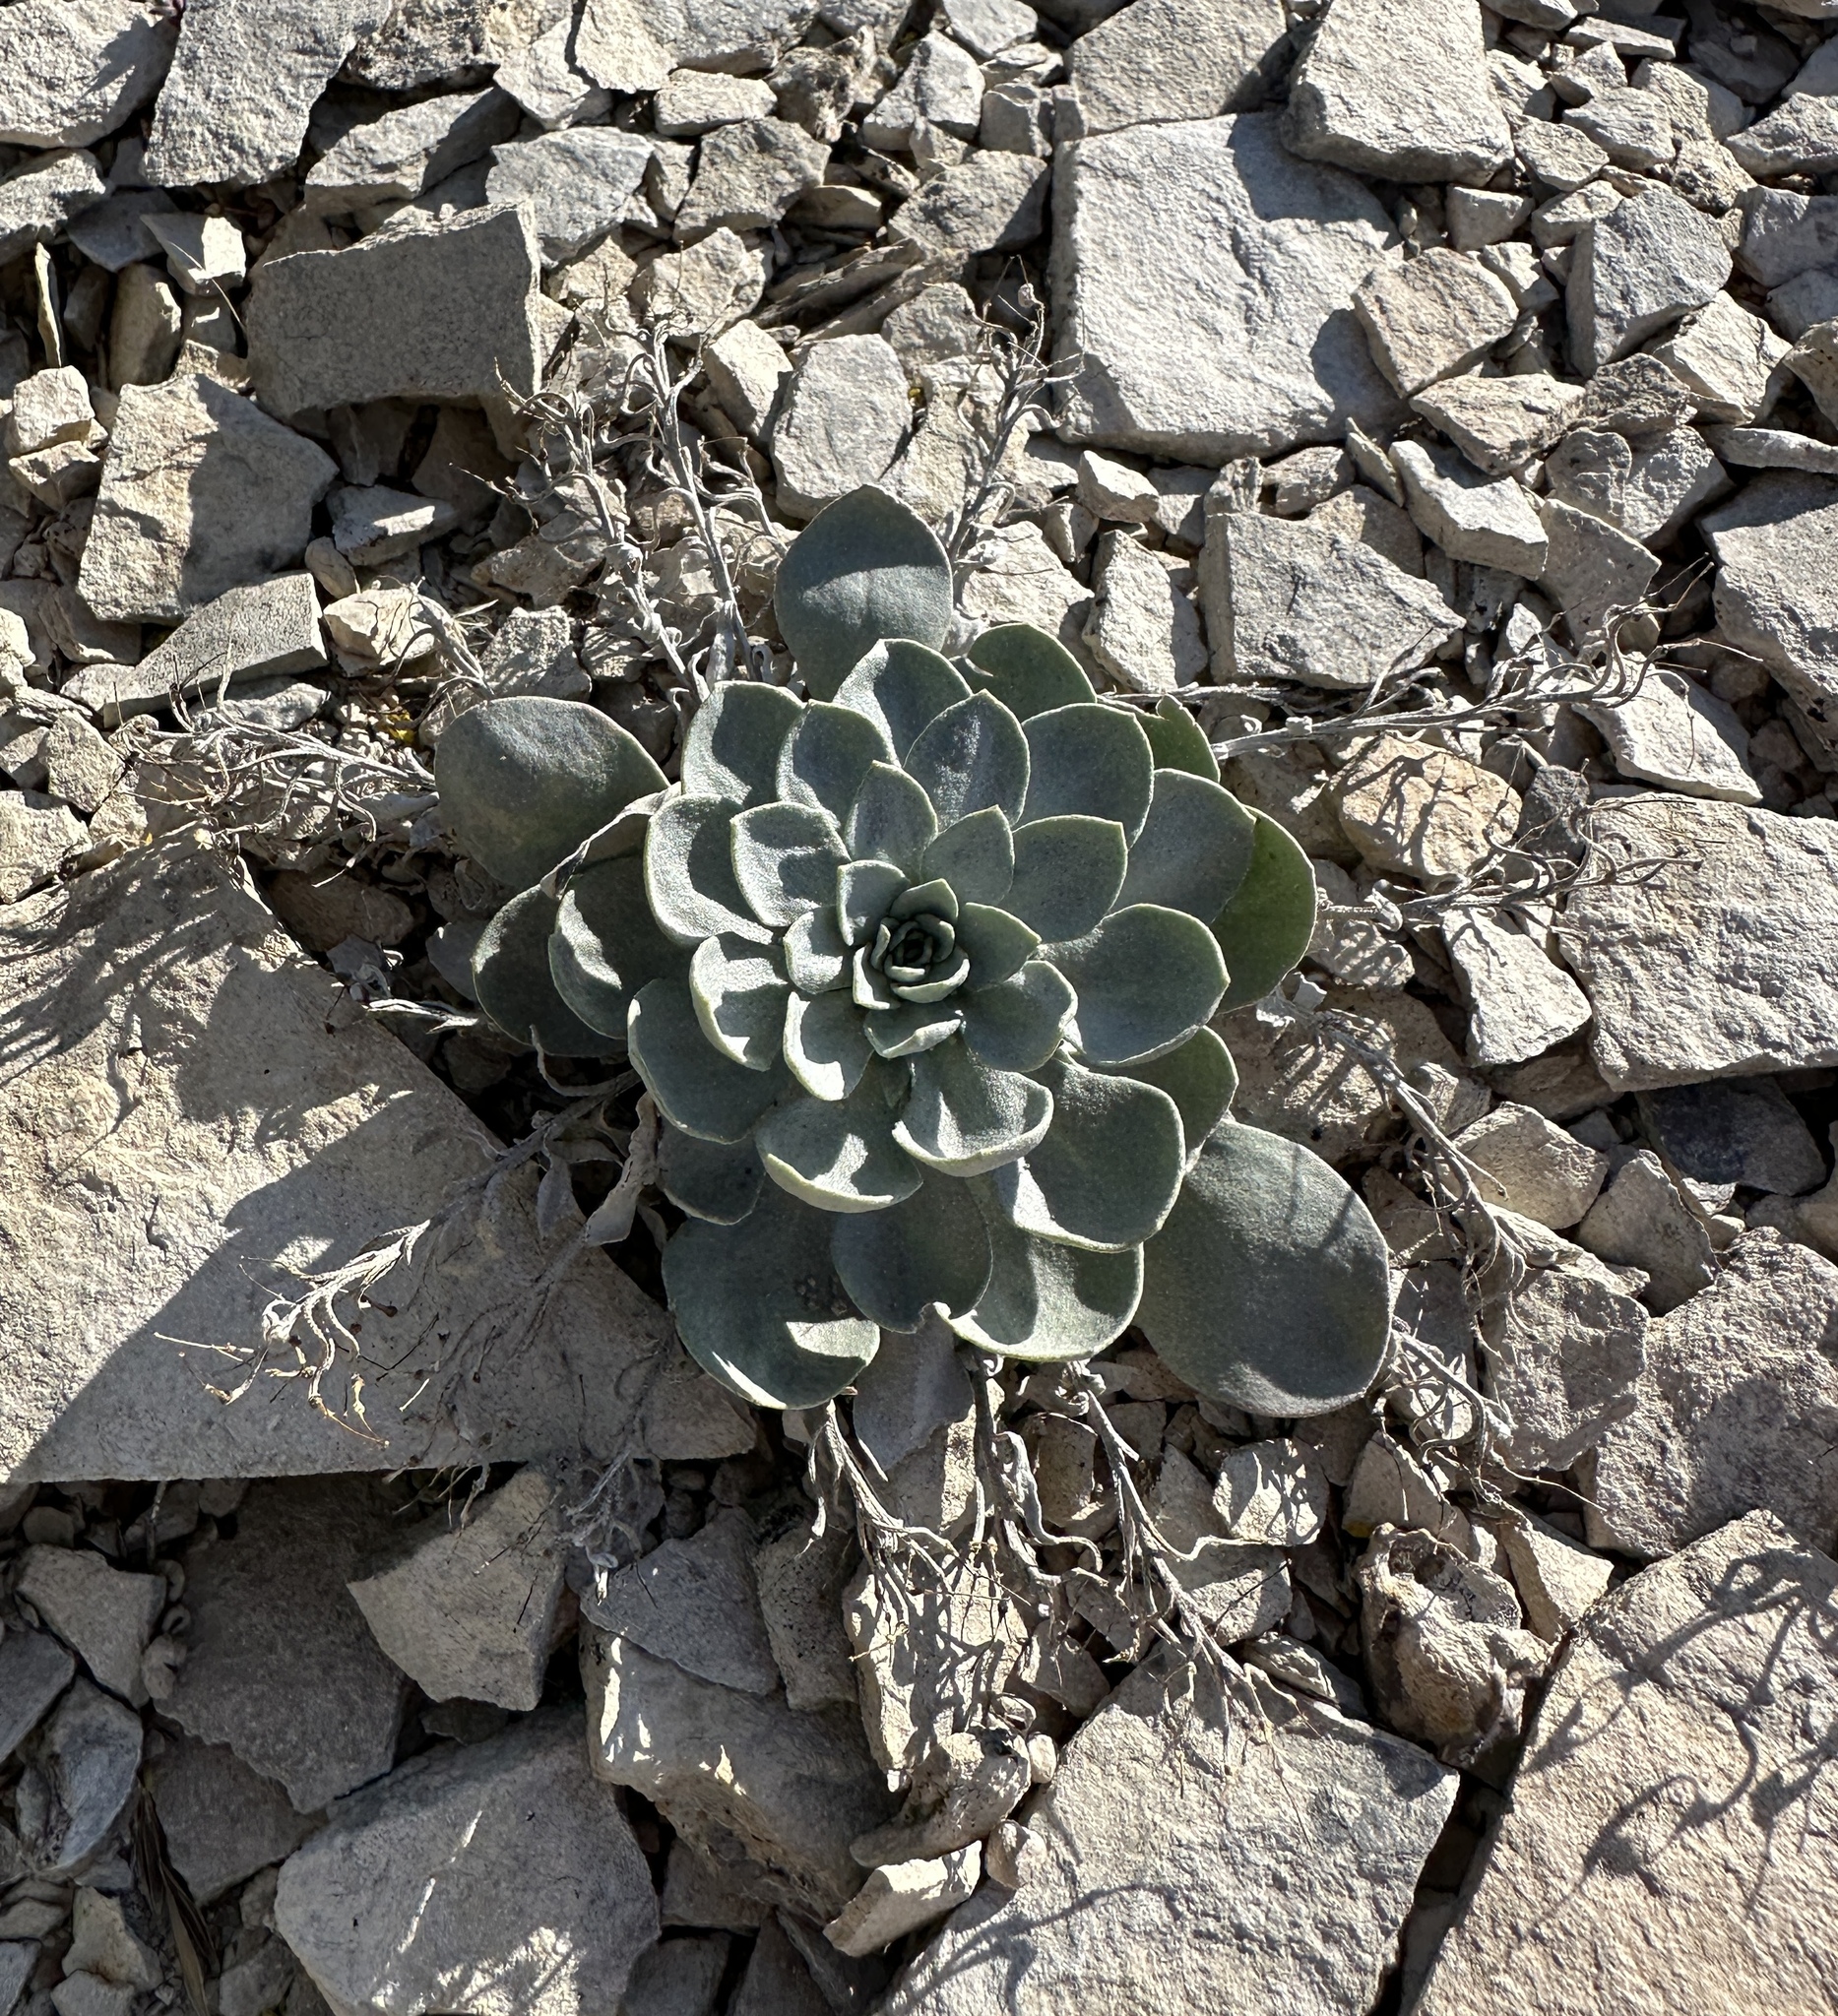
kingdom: Plantae
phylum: Tracheophyta
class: Magnoliopsida
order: Brassicales
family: Brassicaceae
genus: Physaria
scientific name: Physaria bellii
